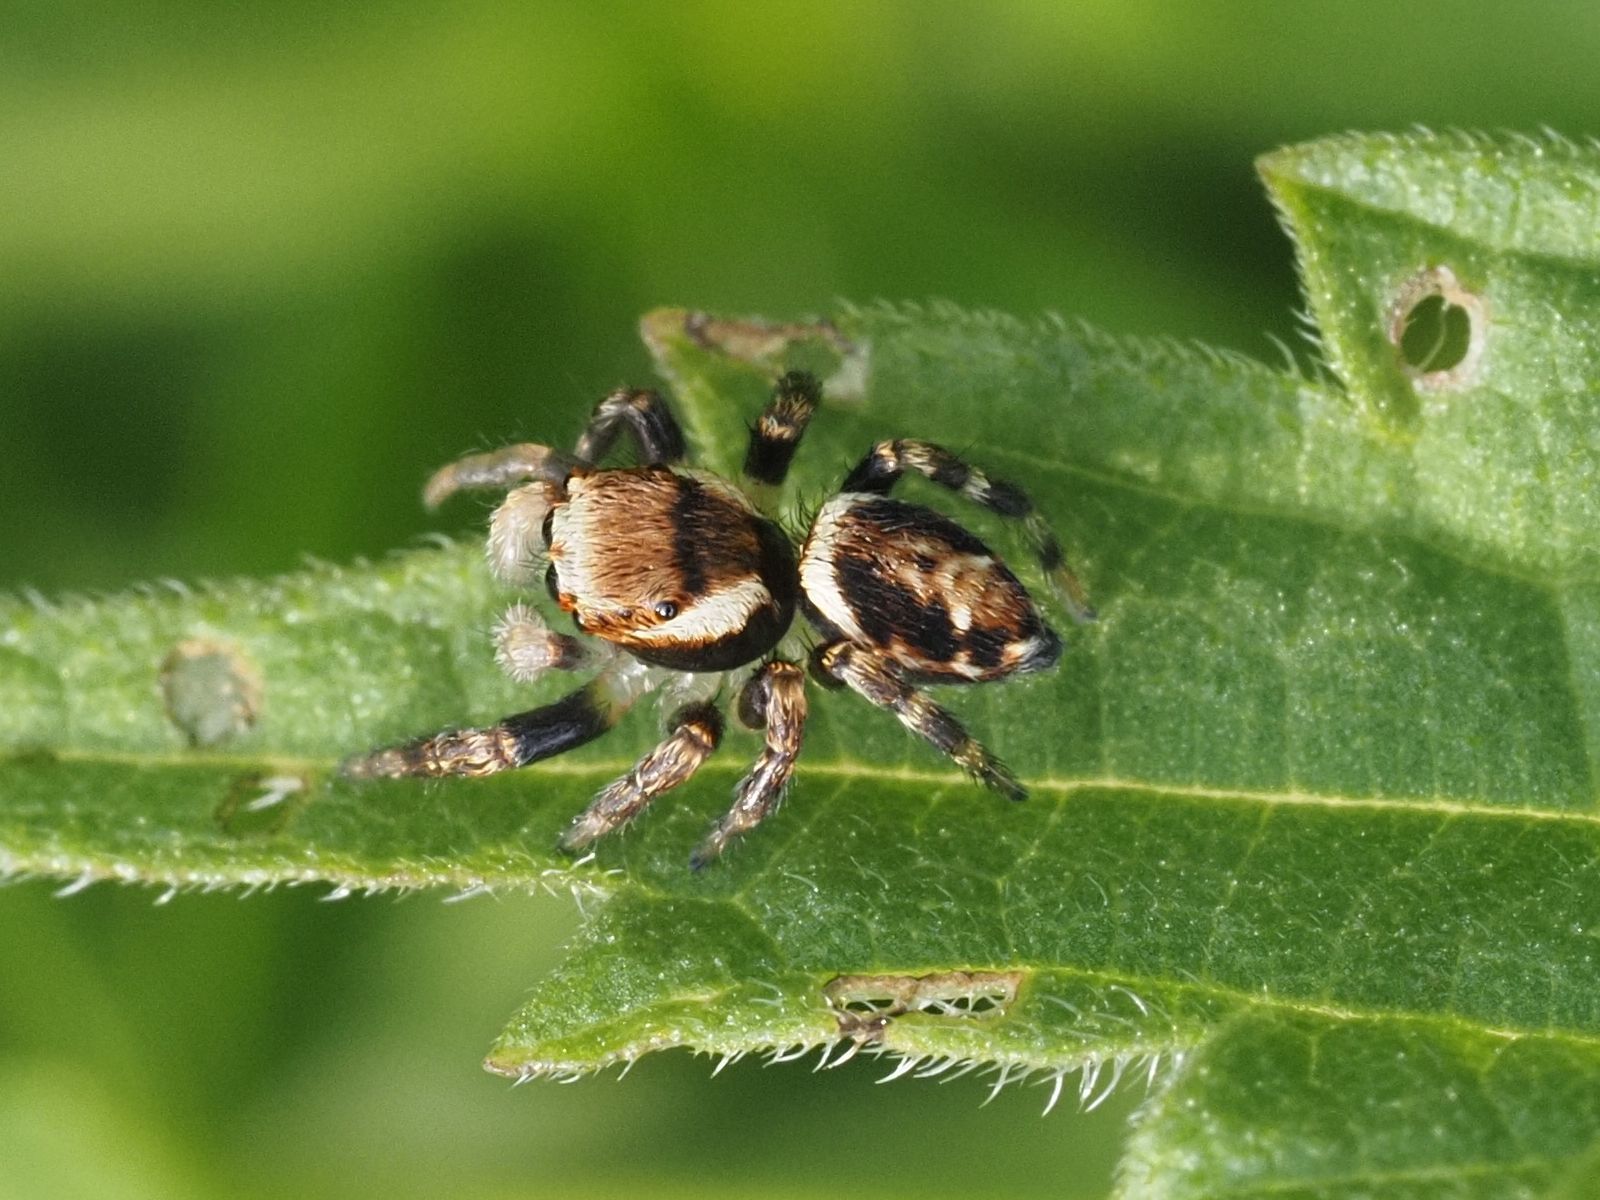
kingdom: Animalia
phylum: Arthropoda
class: Arachnida
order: Araneae
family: Salticidae
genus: Evarcha
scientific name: Evarcha falcata
